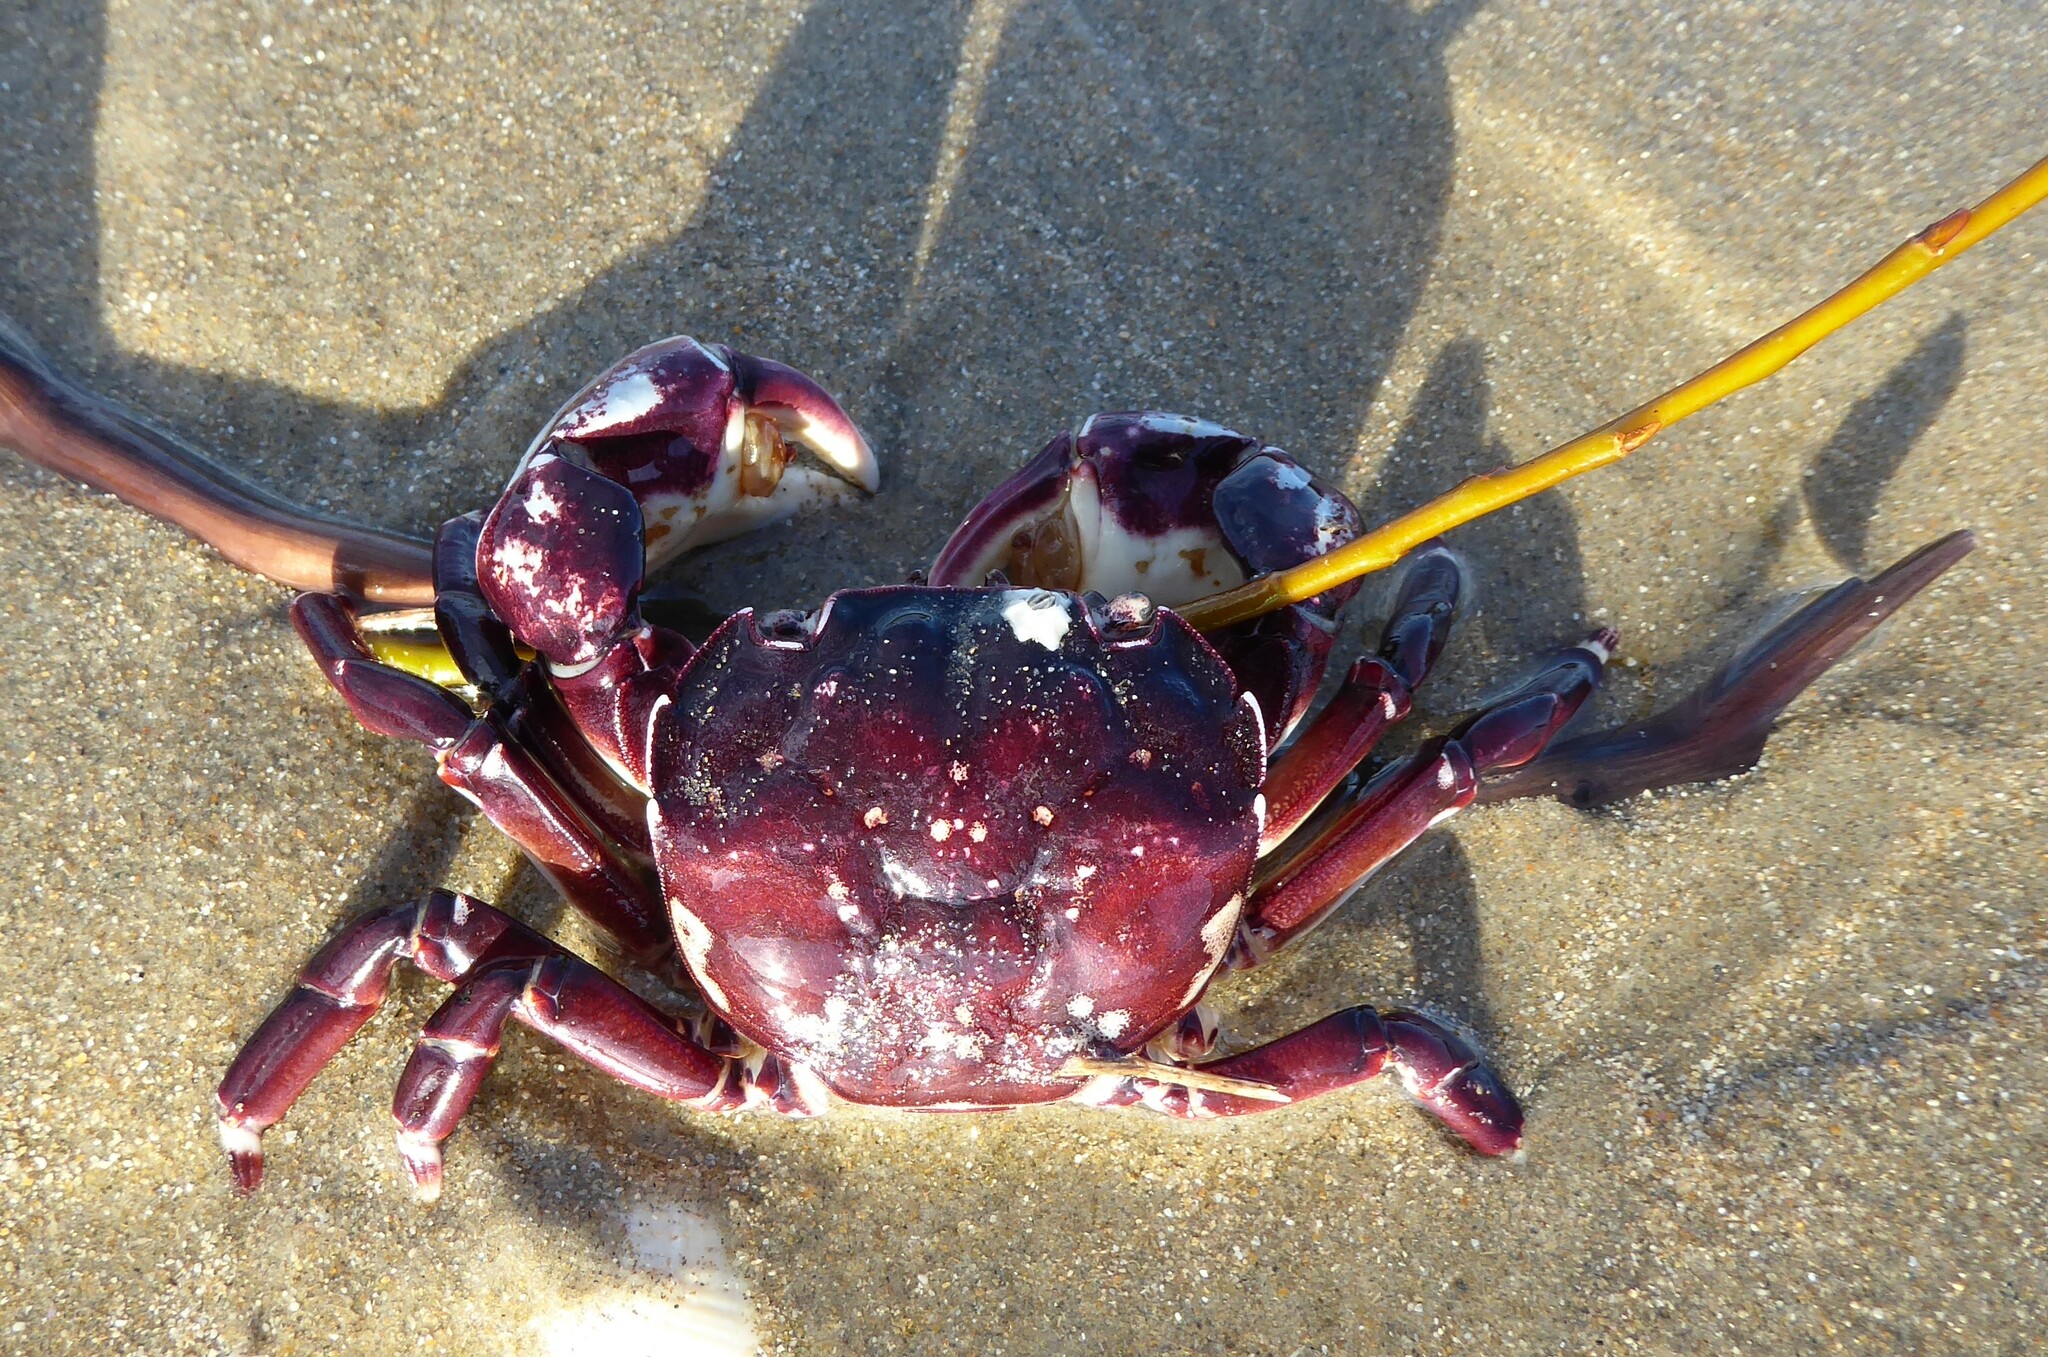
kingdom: Animalia
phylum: Arthropoda
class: Malacostraca
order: Decapoda
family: Varunidae
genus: Hemigrapsus
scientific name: Hemigrapsus sexdentatus
